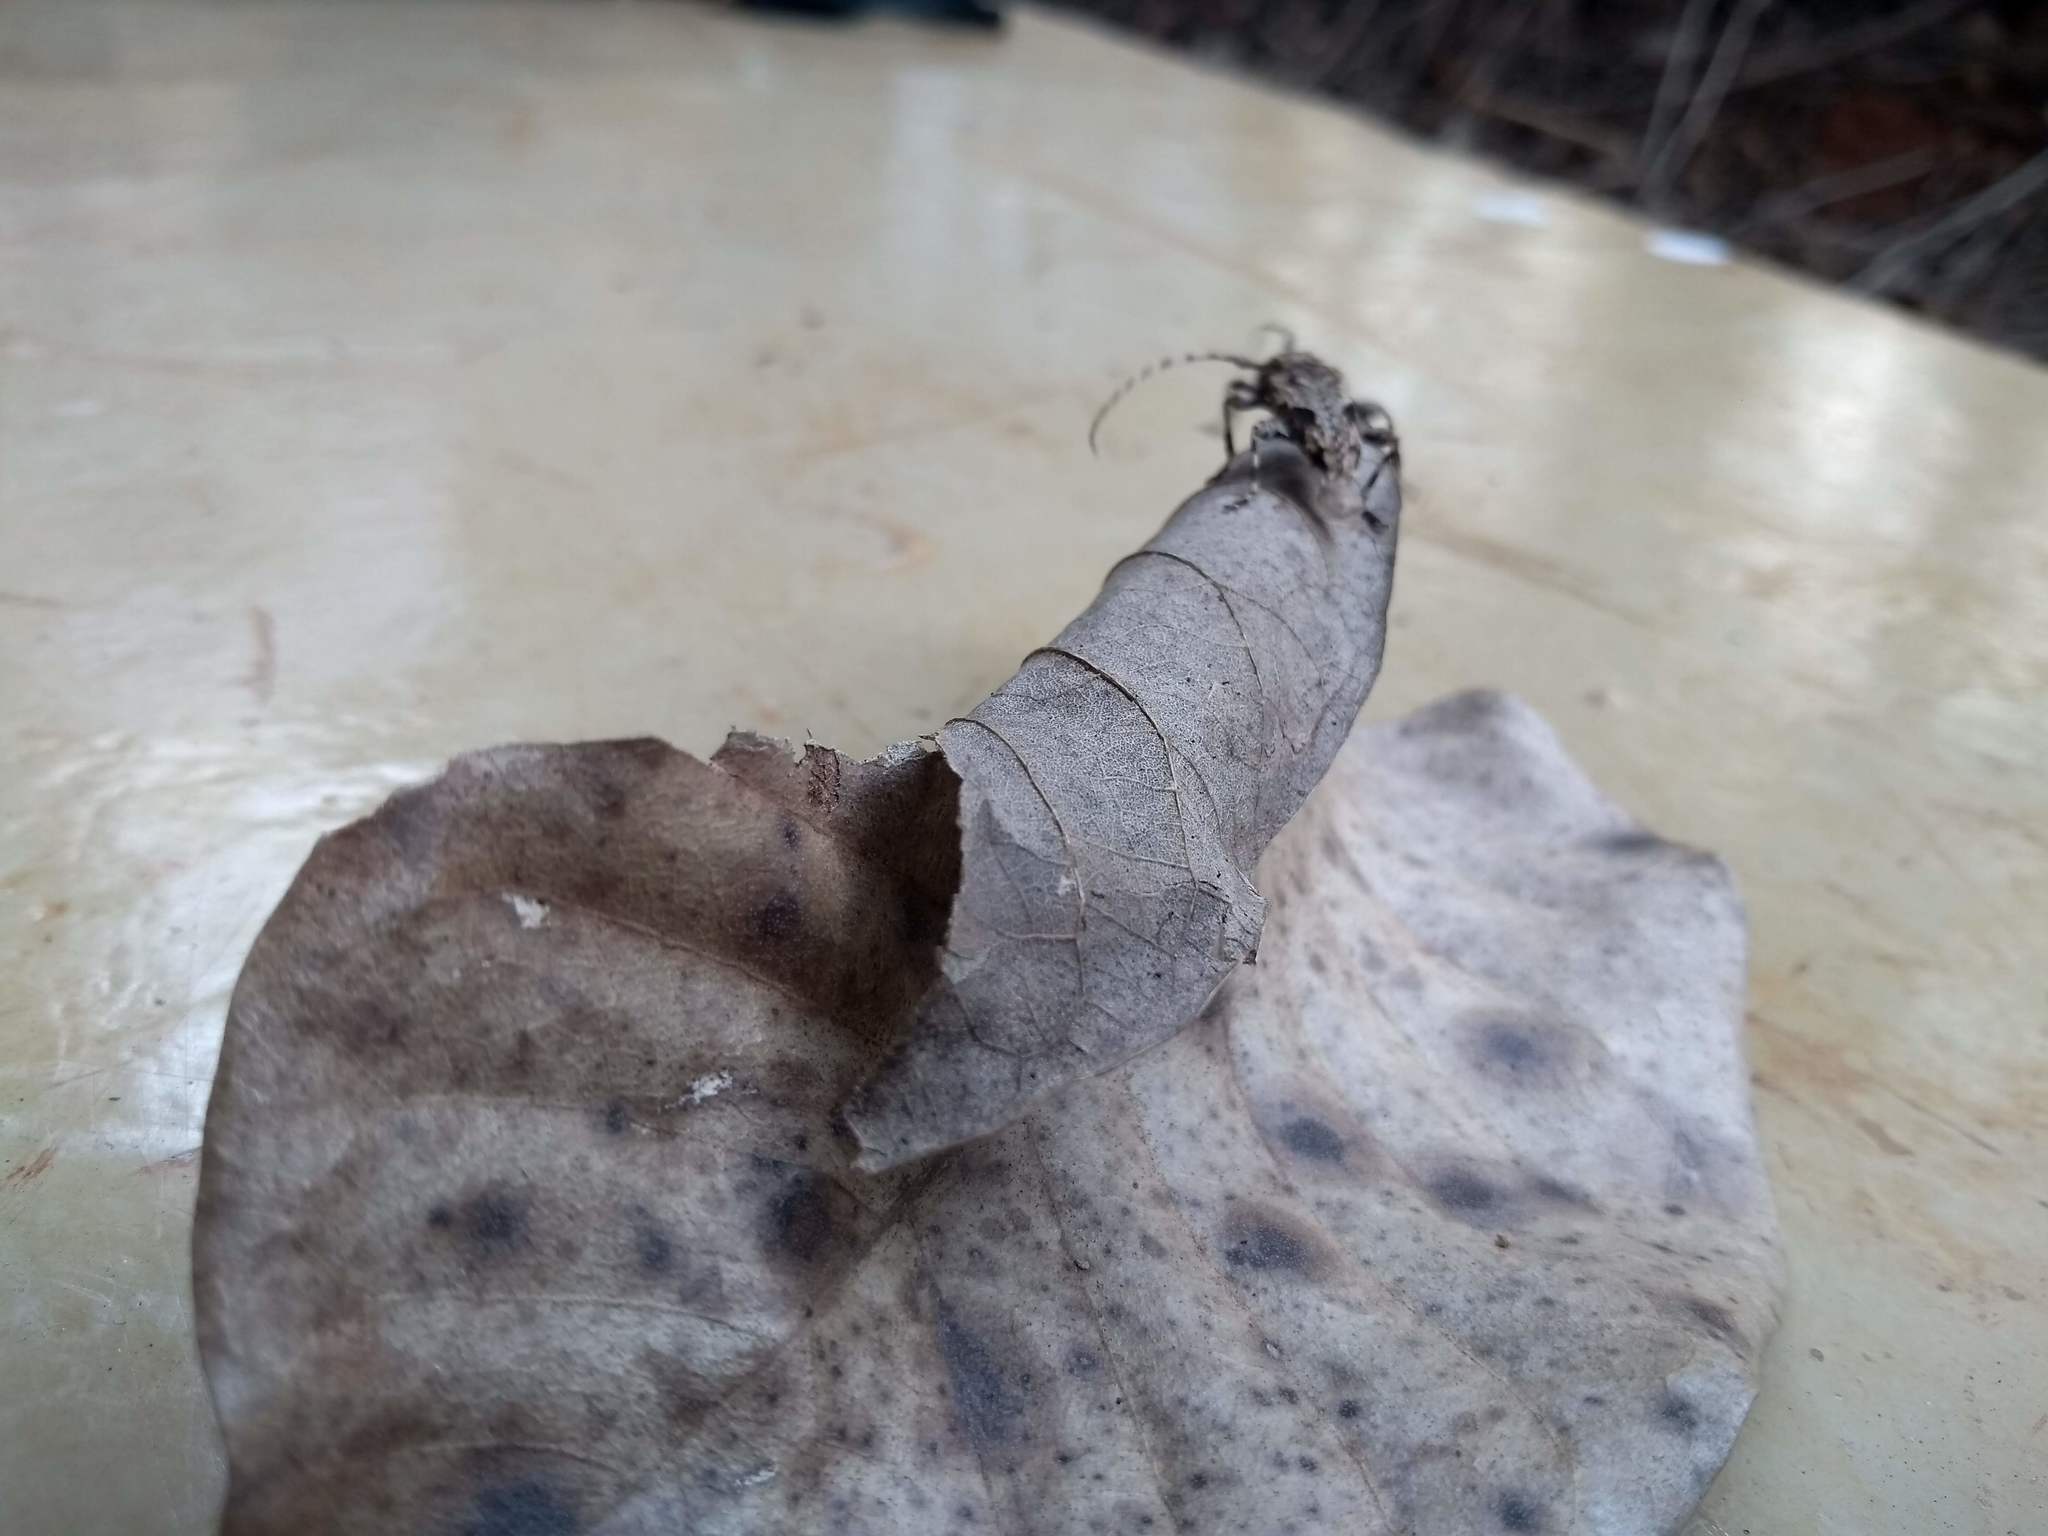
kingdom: Animalia
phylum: Arthropoda
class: Insecta
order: Coleoptera
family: Cerambycidae
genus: Psapharochrus
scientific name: Psapharochrus jaspideus
